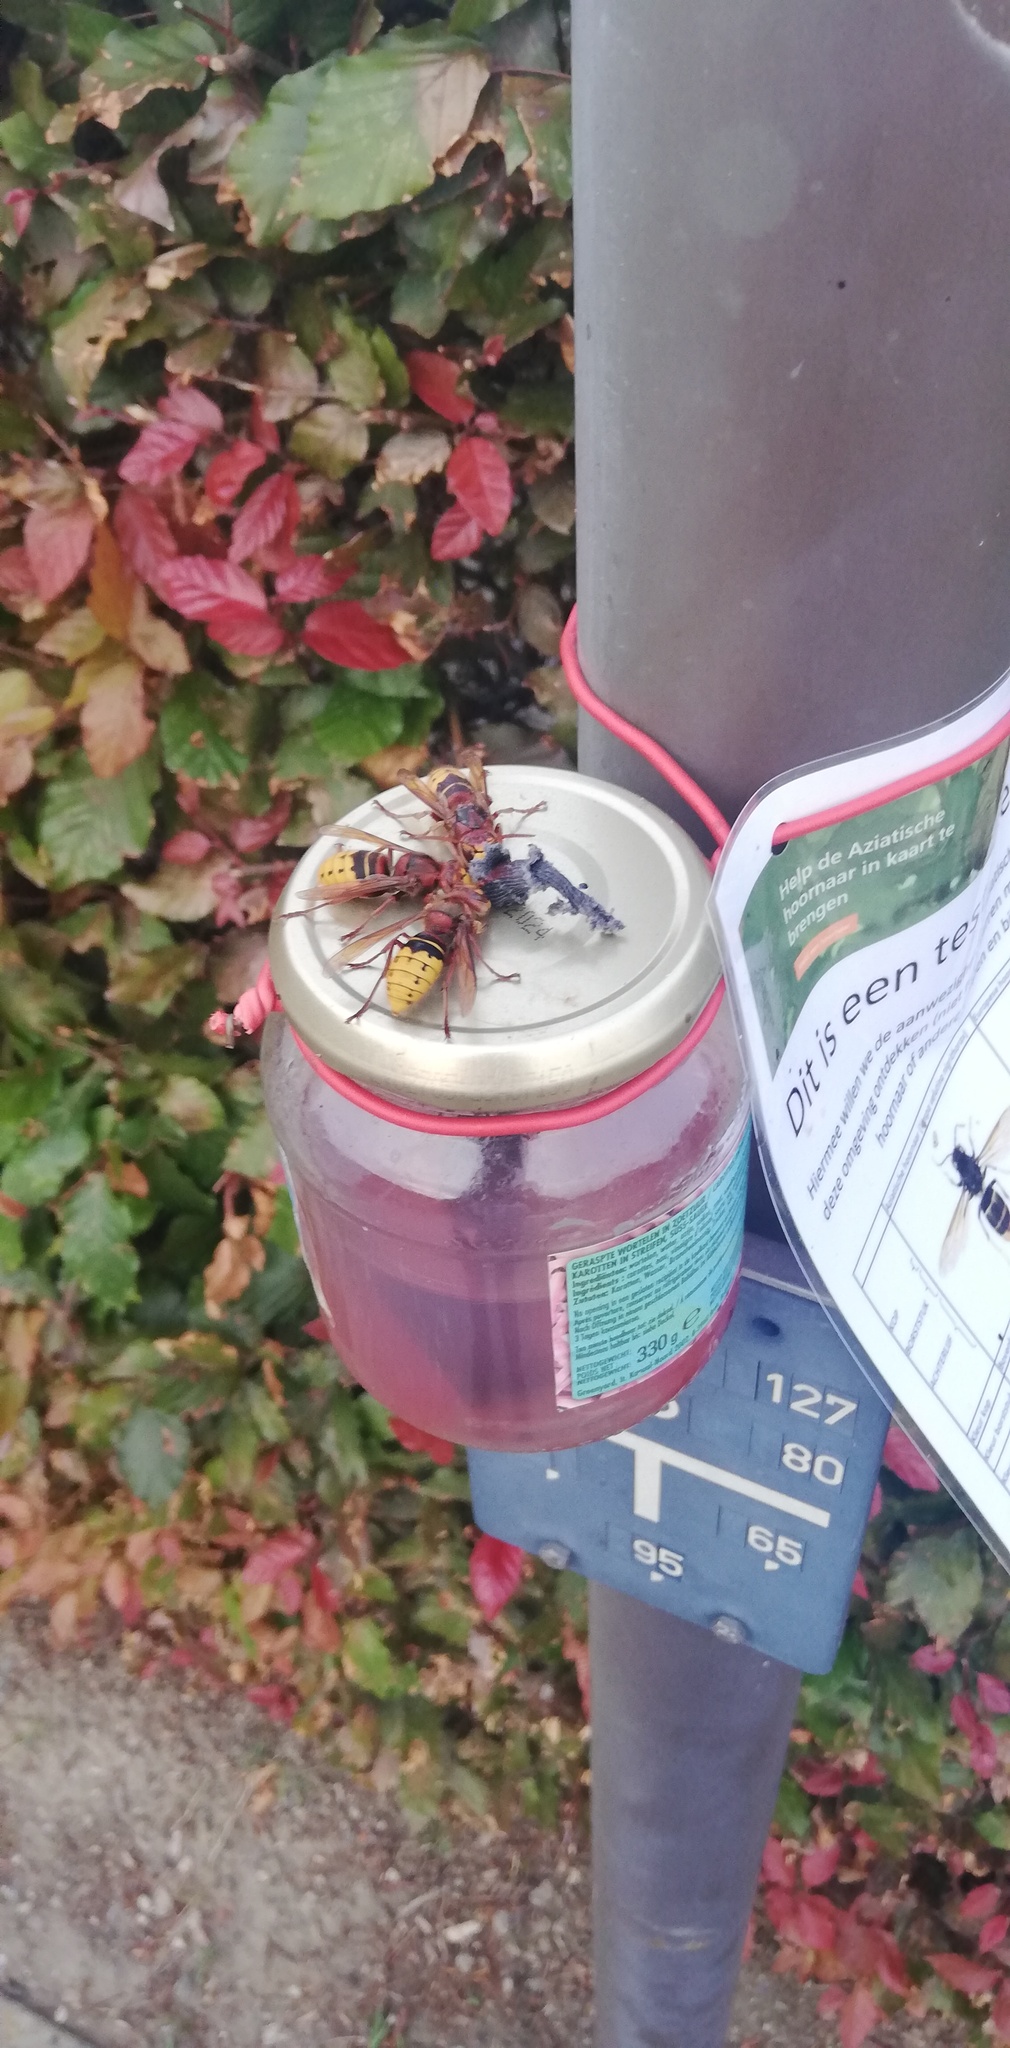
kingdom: Animalia
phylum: Arthropoda
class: Insecta
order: Hymenoptera
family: Vespidae
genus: Vespa
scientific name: Vespa crabro
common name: Hornet
